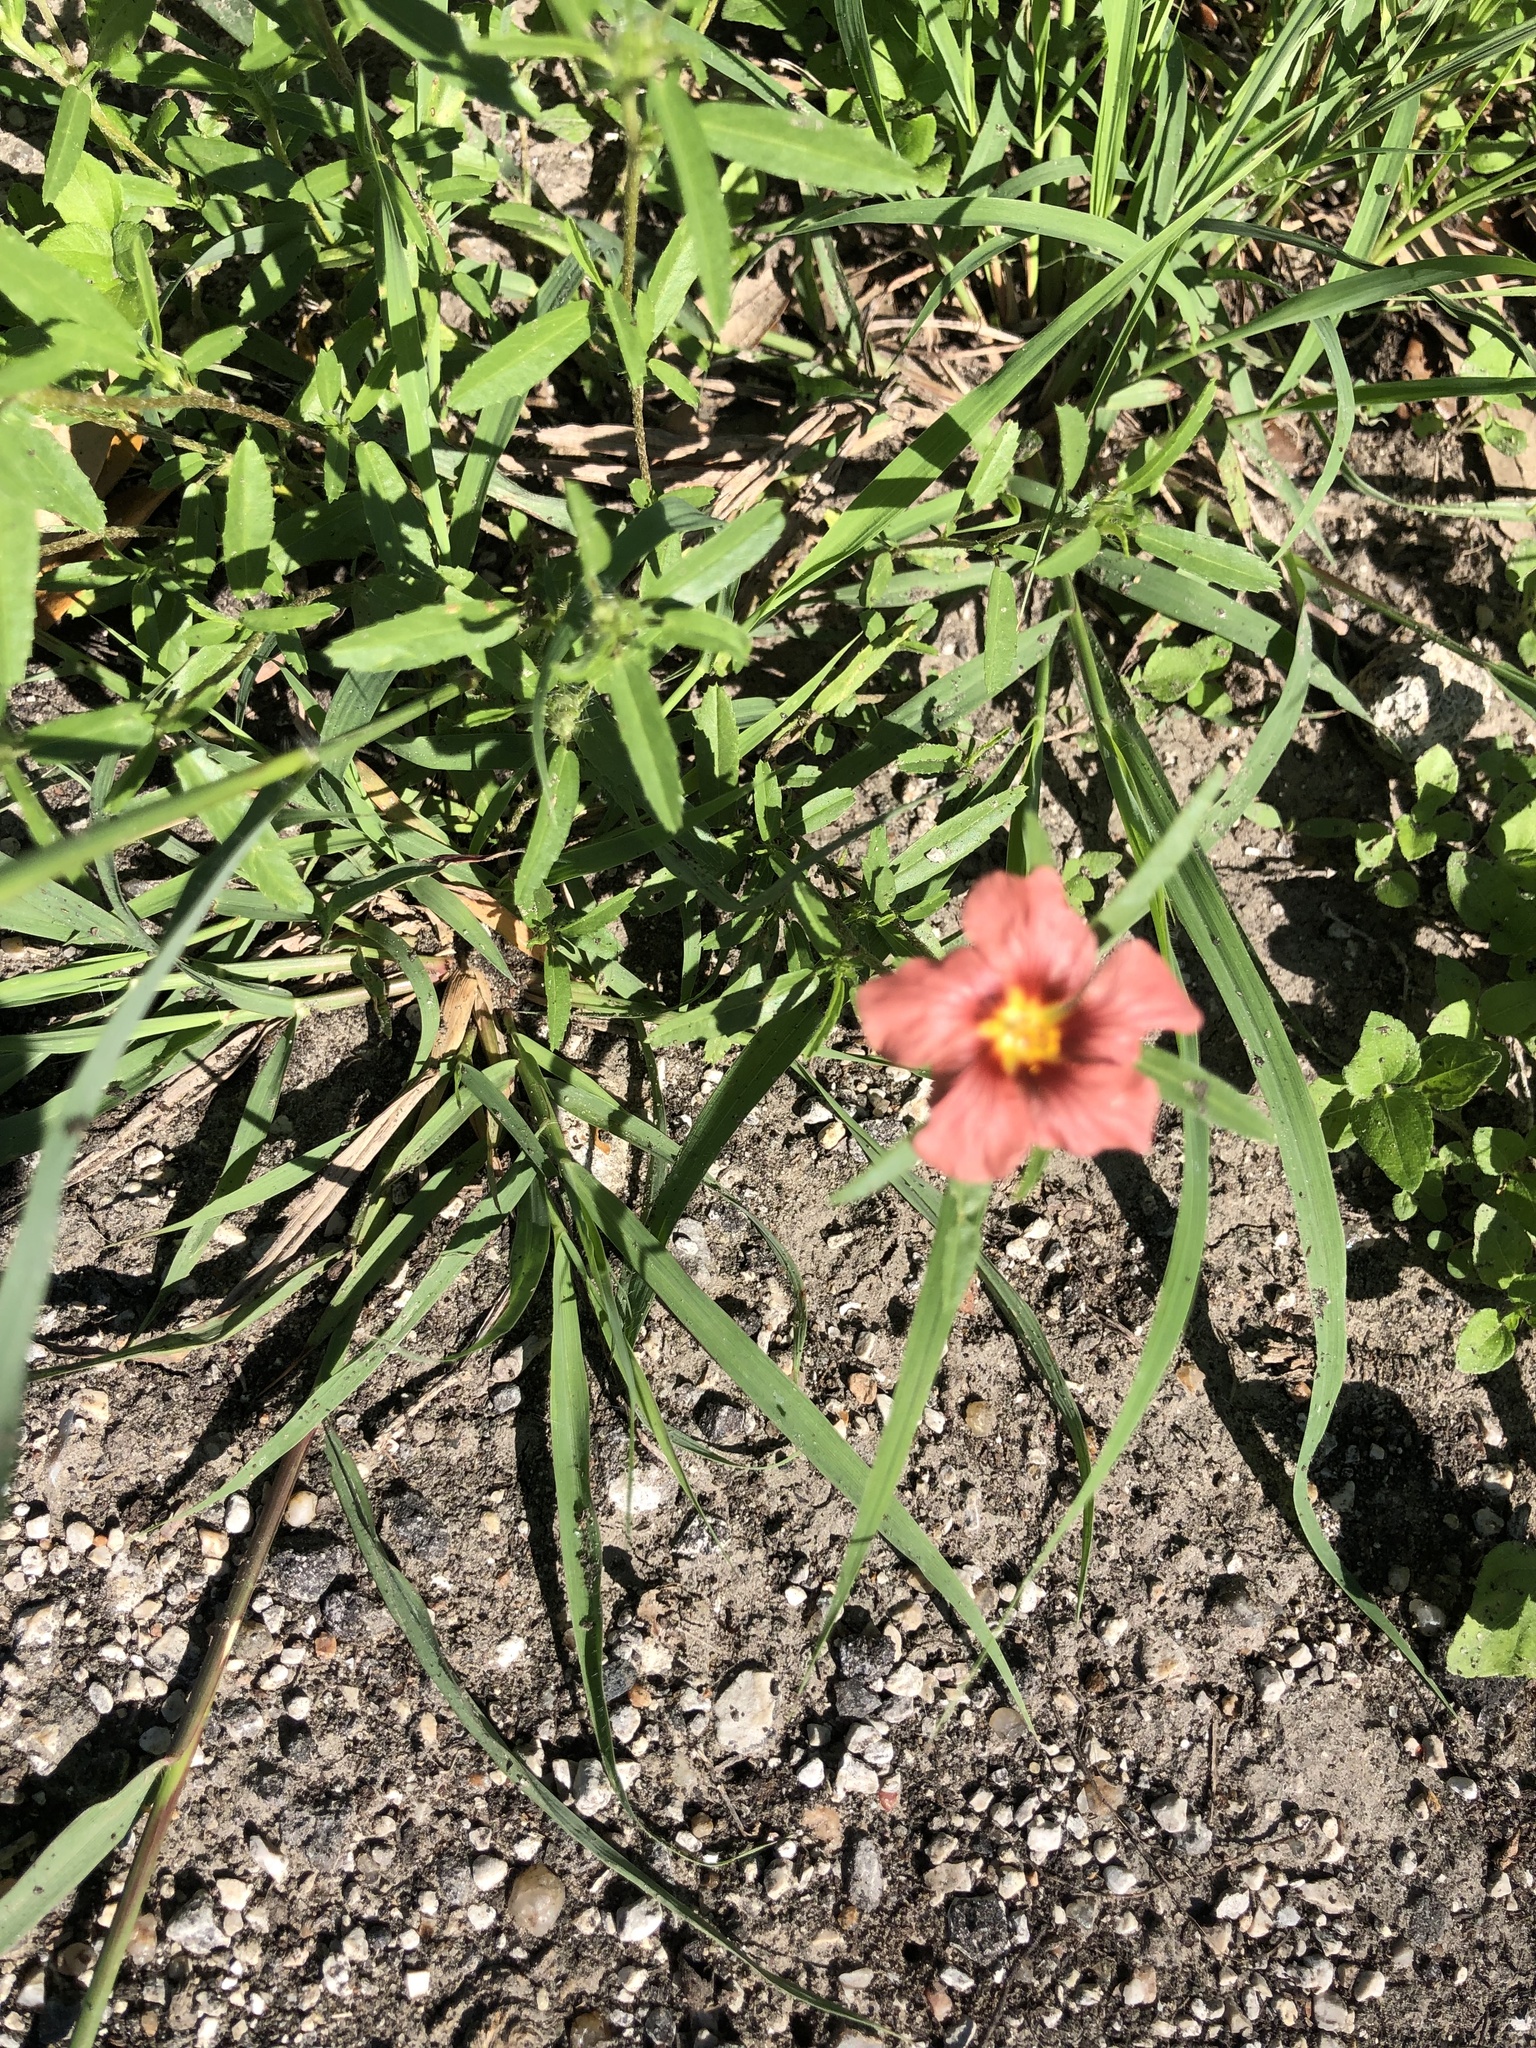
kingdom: Plantae
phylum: Tracheophyta
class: Magnoliopsida
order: Malvales
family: Malvaceae
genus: Sida
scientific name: Sida ciliaris
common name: Bracted fanpetals
